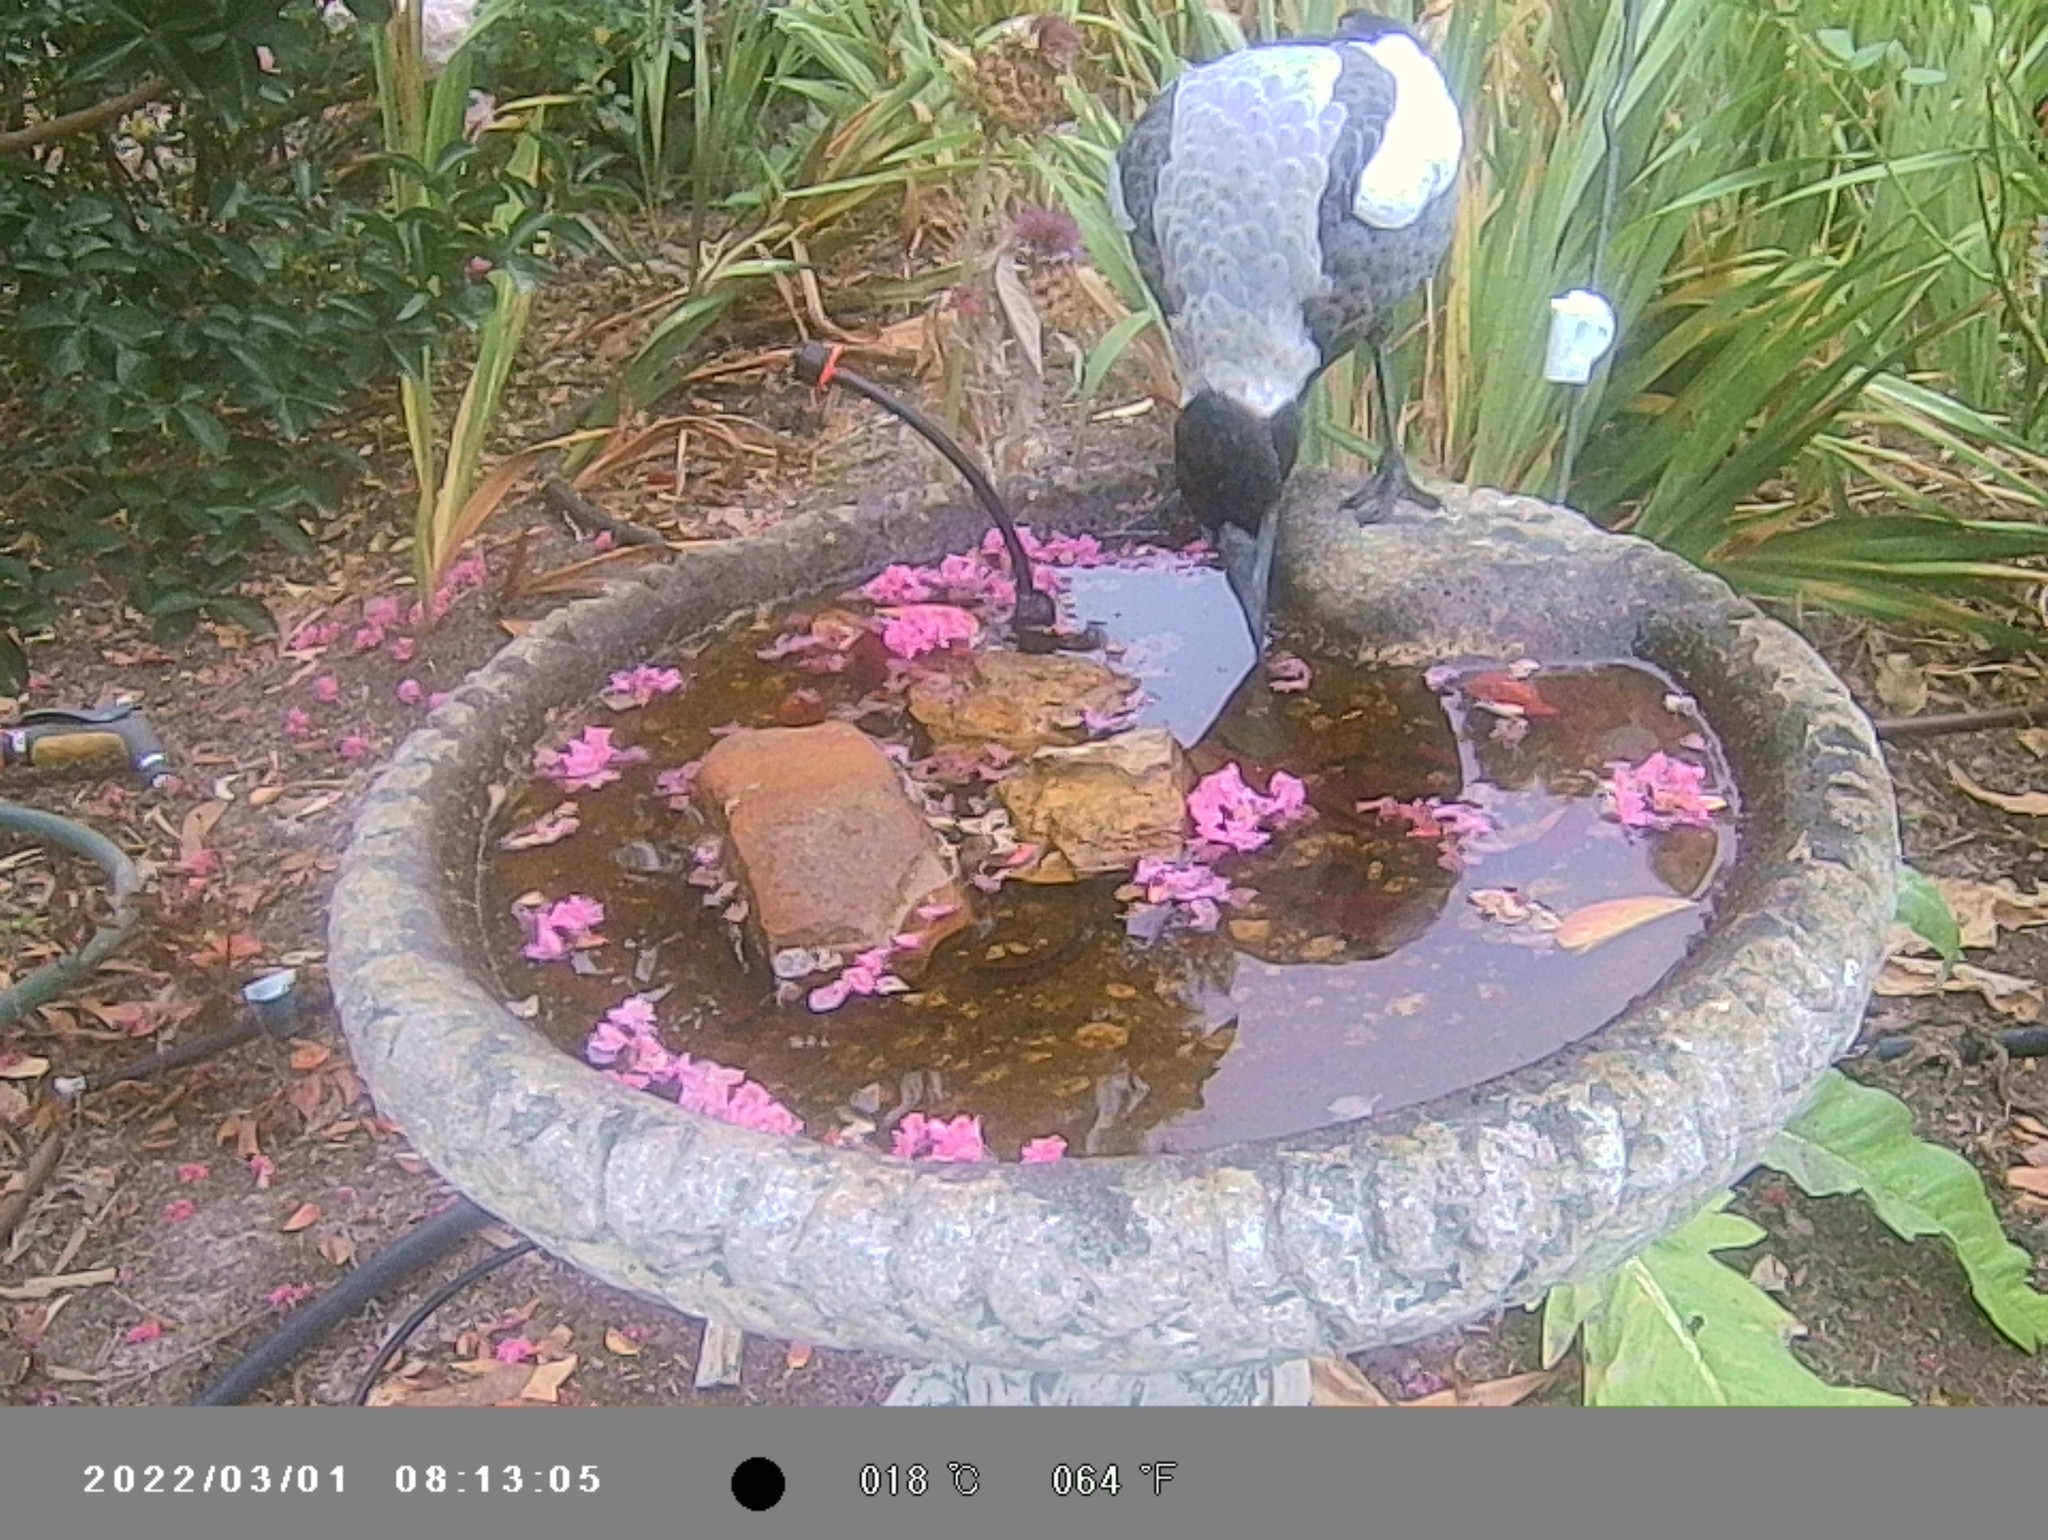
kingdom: Animalia
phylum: Chordata
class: Aves
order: Passeriformes
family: Cracticidae
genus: Gymnorhina
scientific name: Gymnorhina tibicen
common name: Australian magpie
